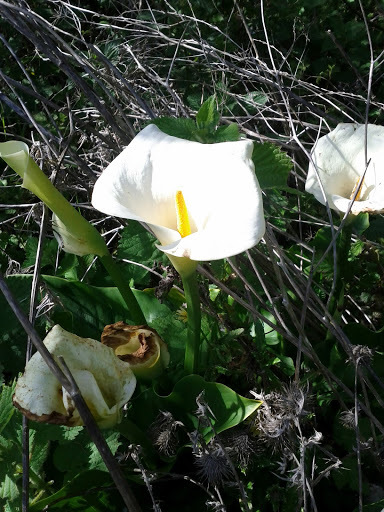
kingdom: Plantae
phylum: Tracheophyta
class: Liliopsida
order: Alismatales
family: Araceae
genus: Zantedeschia
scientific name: Zantedeschia aethiopica
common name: Altar-lily
